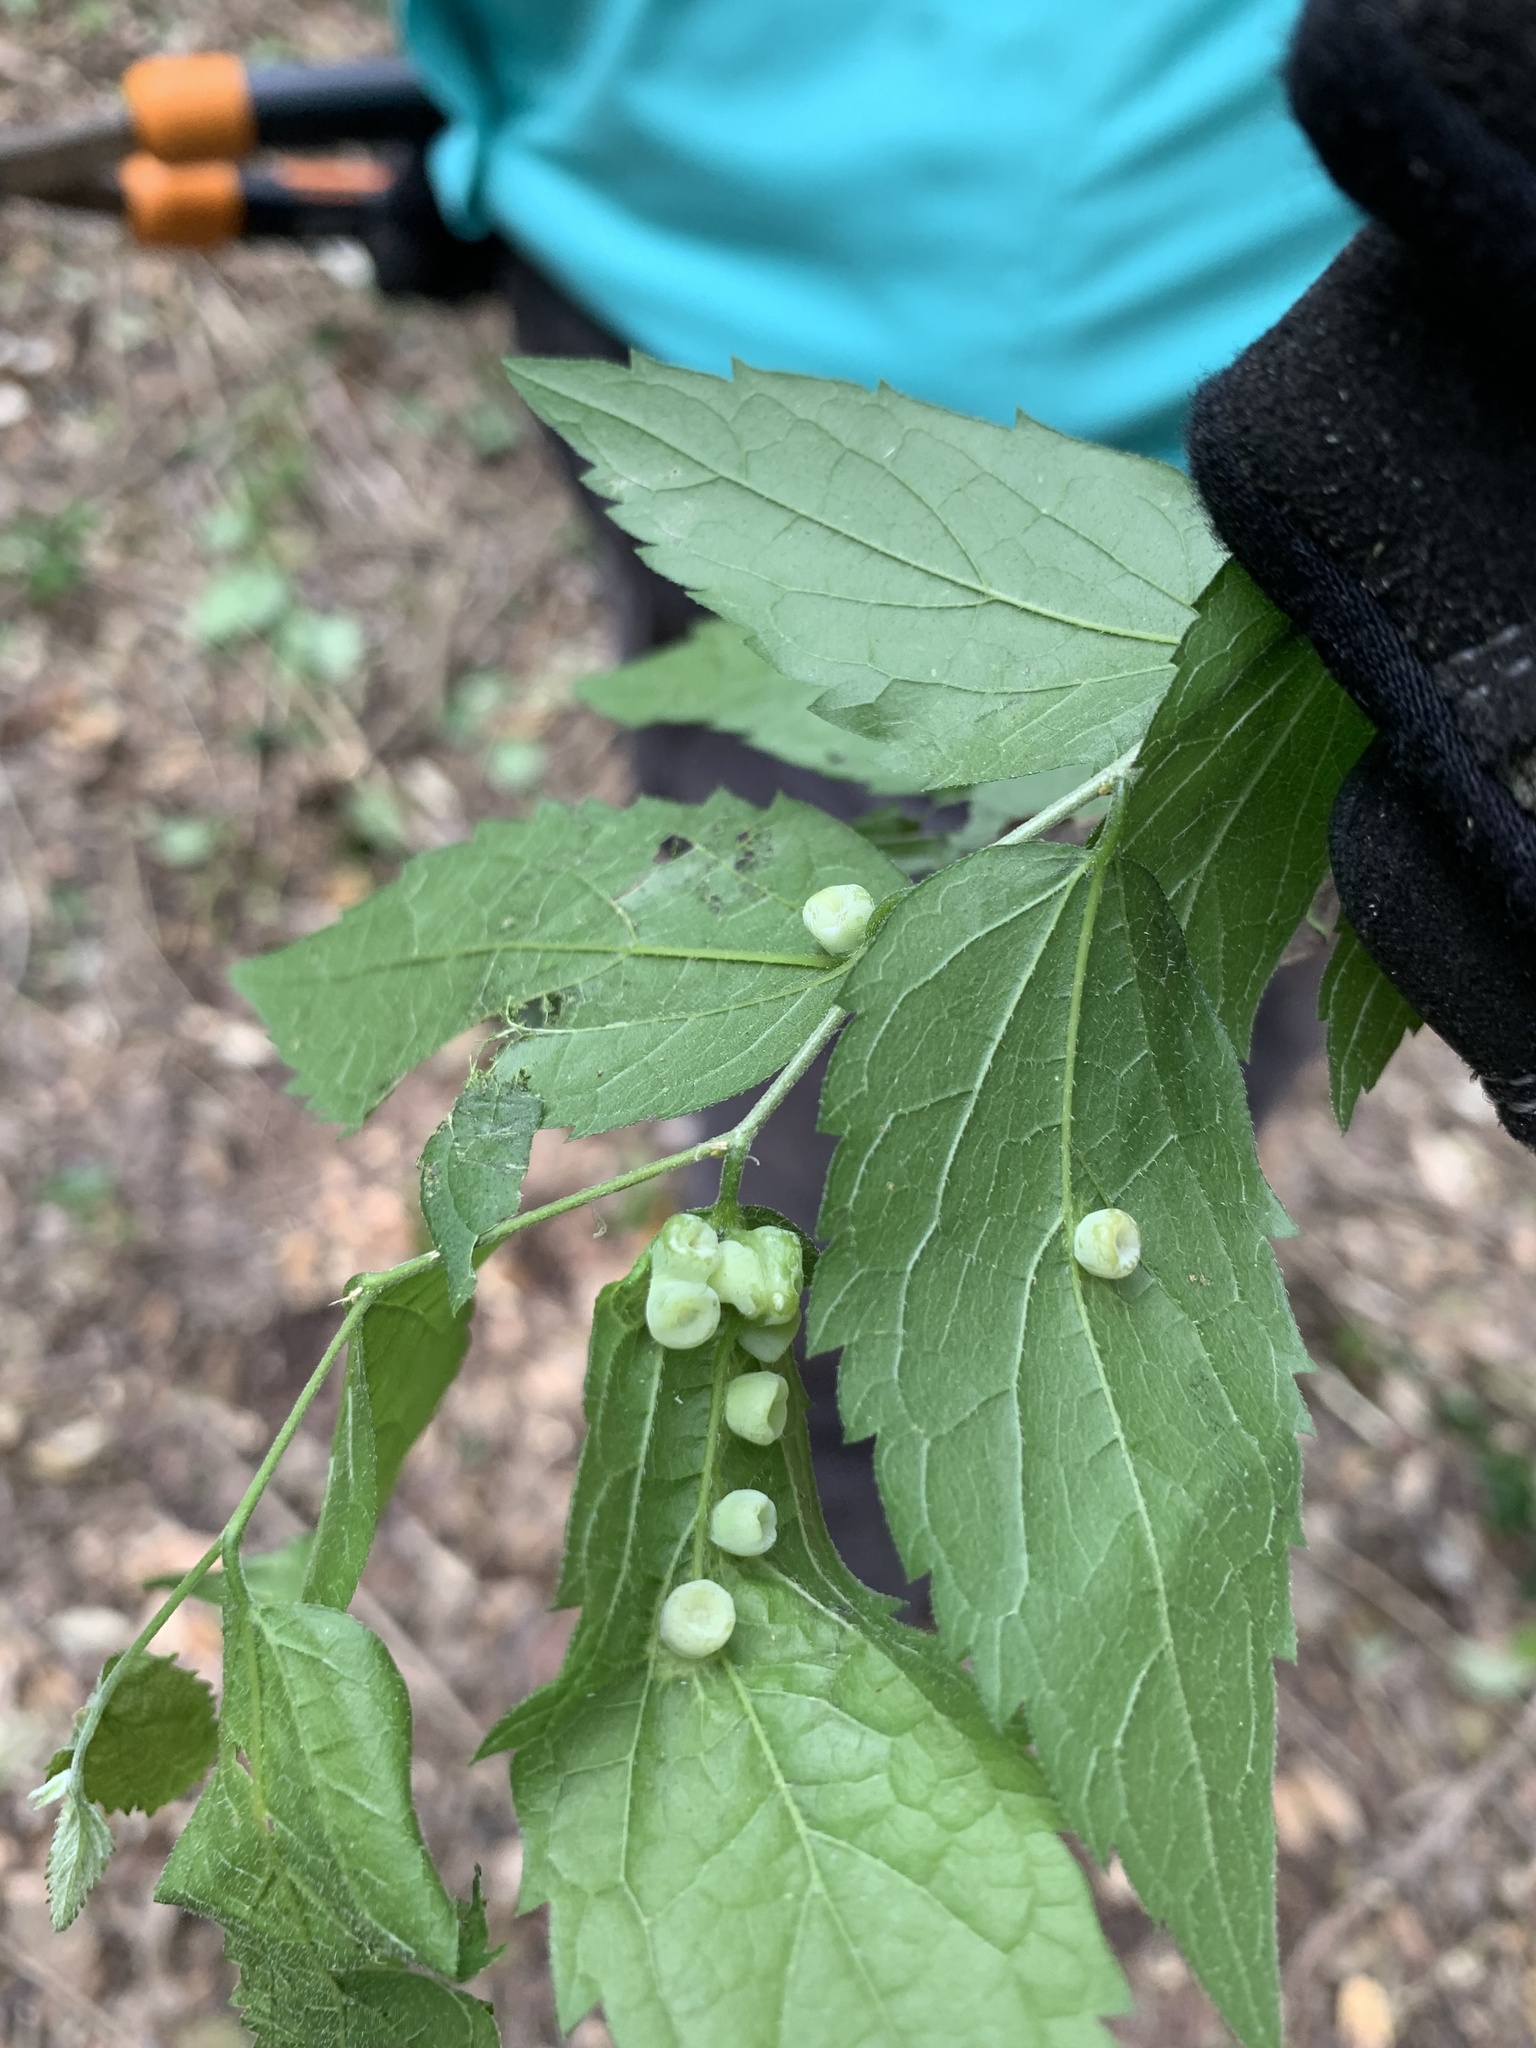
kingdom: Animalia
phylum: Arthropoda
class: Insecta
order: Hemiptera
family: Aphalaridae
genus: Pachypsylla
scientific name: Pachypsylla celtidismamma
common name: Hackberry nipplegall psyllid
